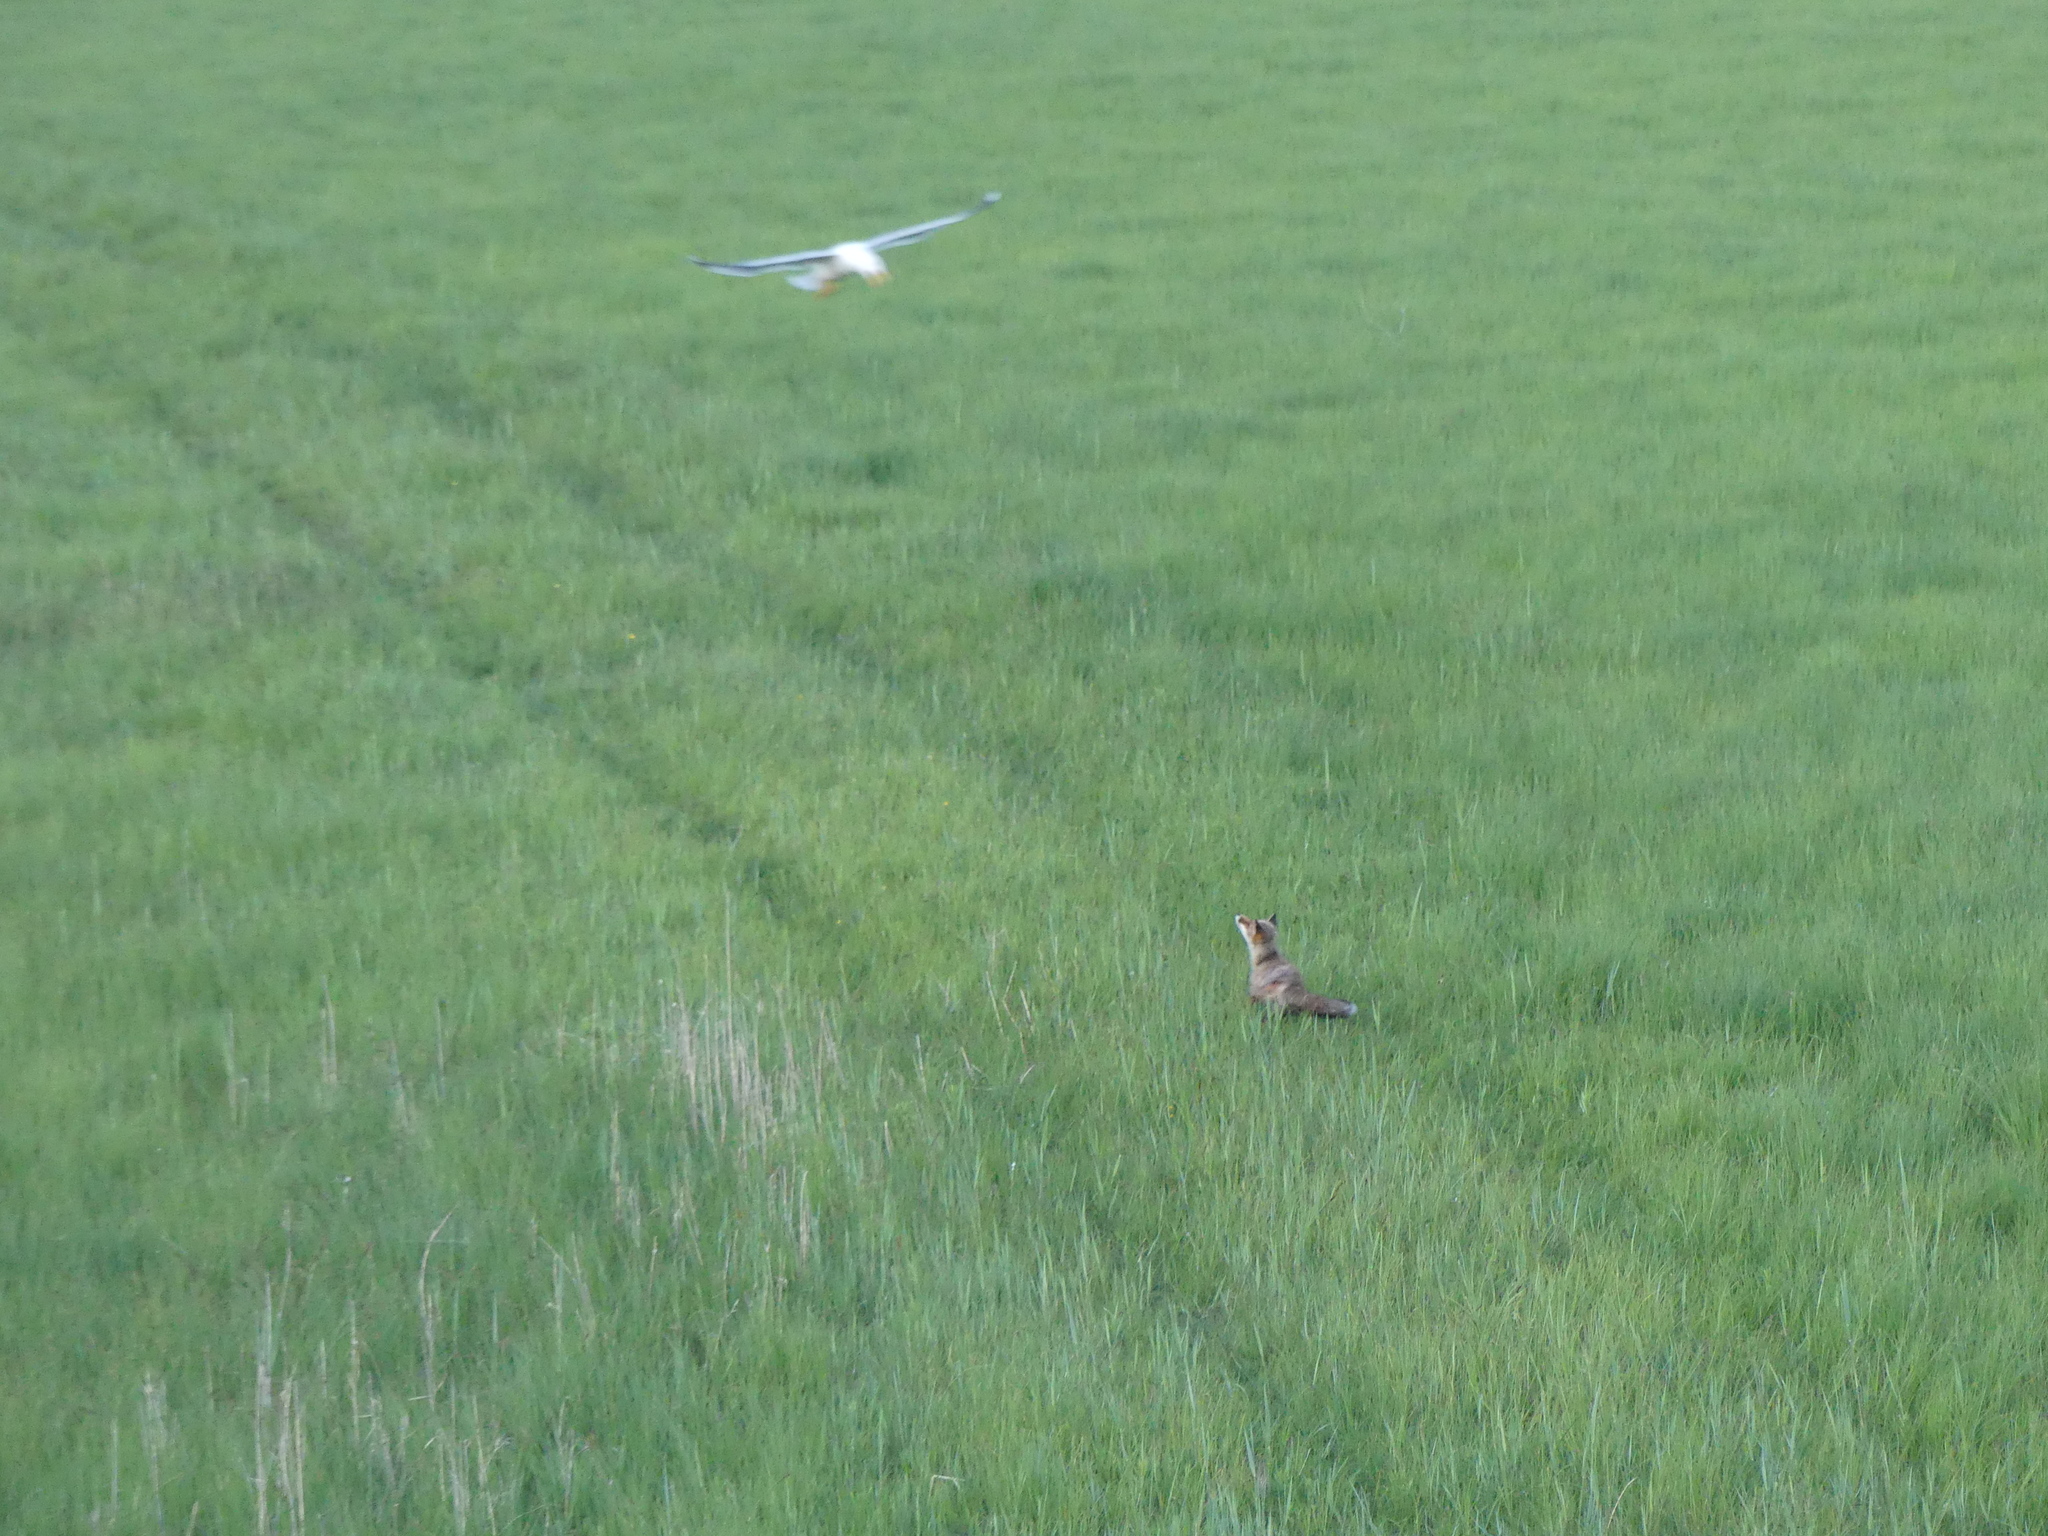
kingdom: Animalia
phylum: Chordata
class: Aves
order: Charadriiformes
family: Laridae
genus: Larus
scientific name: Larus michahellis
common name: Yellow-legged gull
